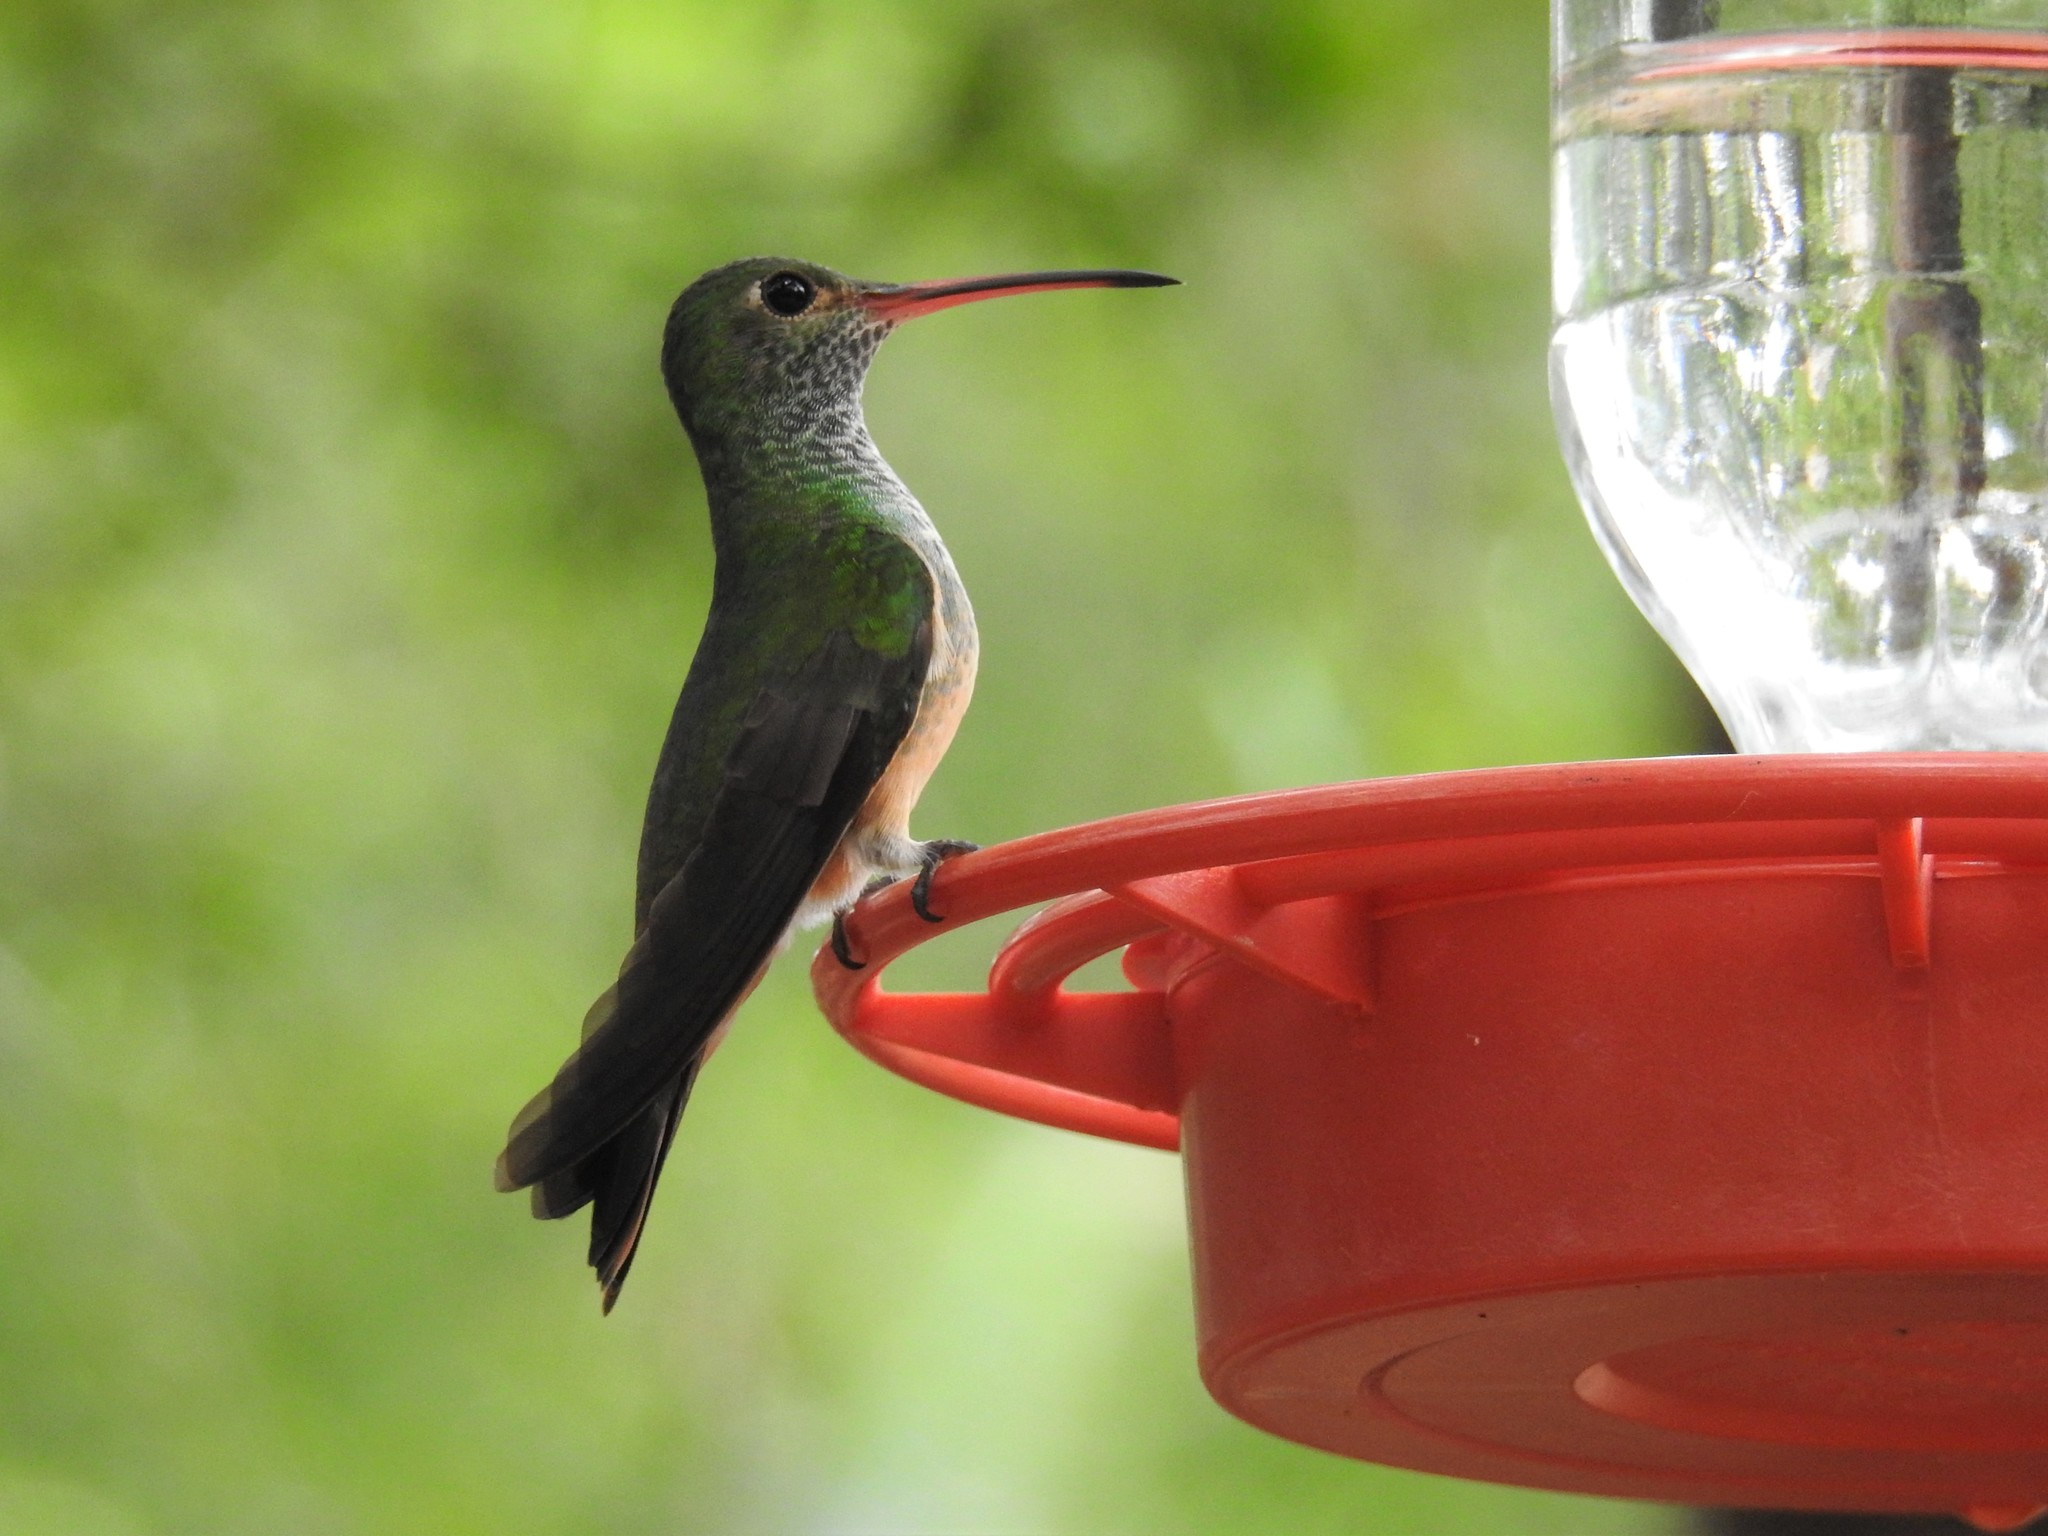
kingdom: Animalia
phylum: Chordata
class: Aves
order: Apodiformes
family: Trochilidae
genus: Amazilia
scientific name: Amazilia yucatanensis
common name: Buff-bellied hummingbird
